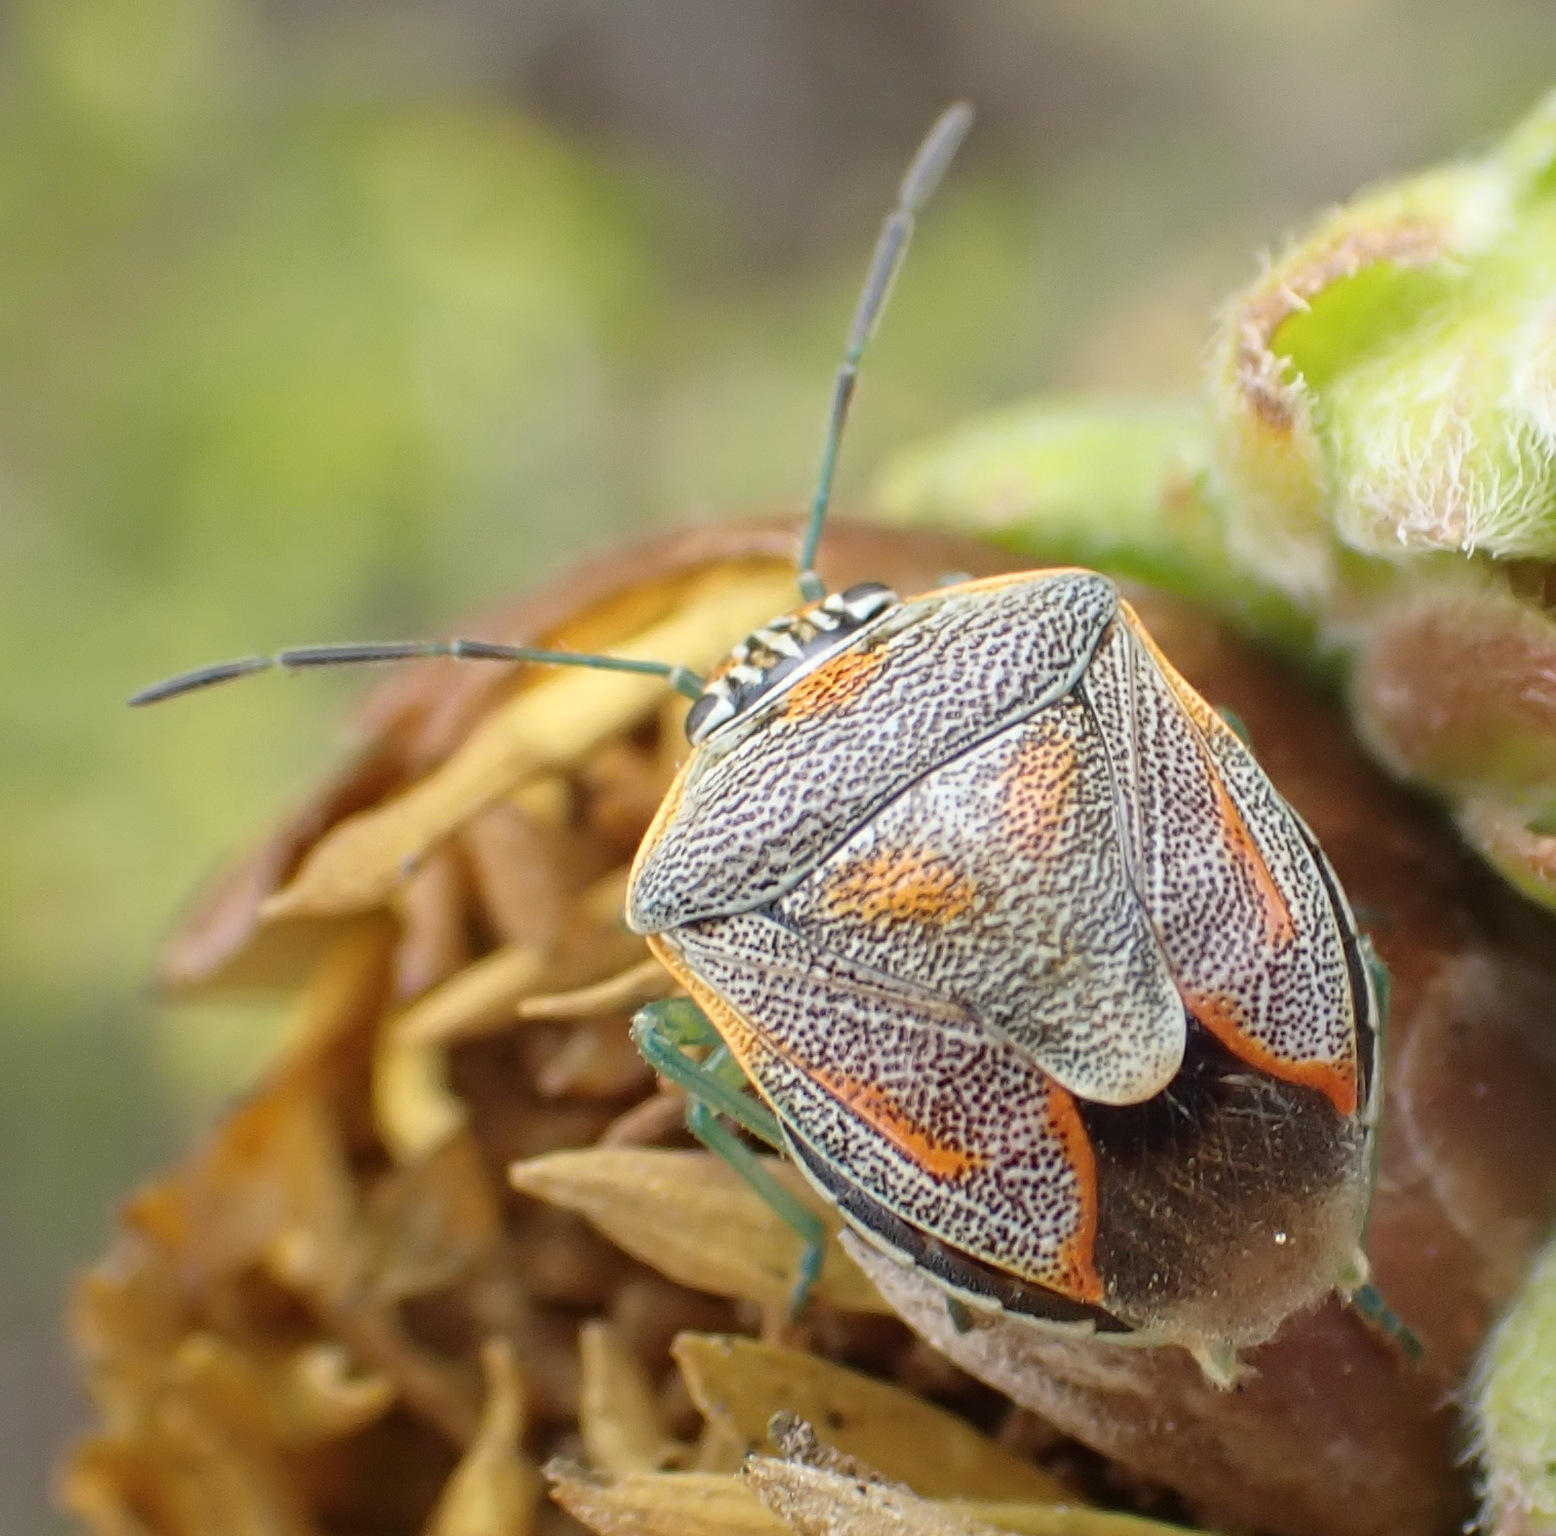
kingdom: Animalia
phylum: Arthropoda
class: Insecta
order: Hemiptera
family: Pentatomidae
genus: Antestiopsis
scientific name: Antestiopsis thunbergii
